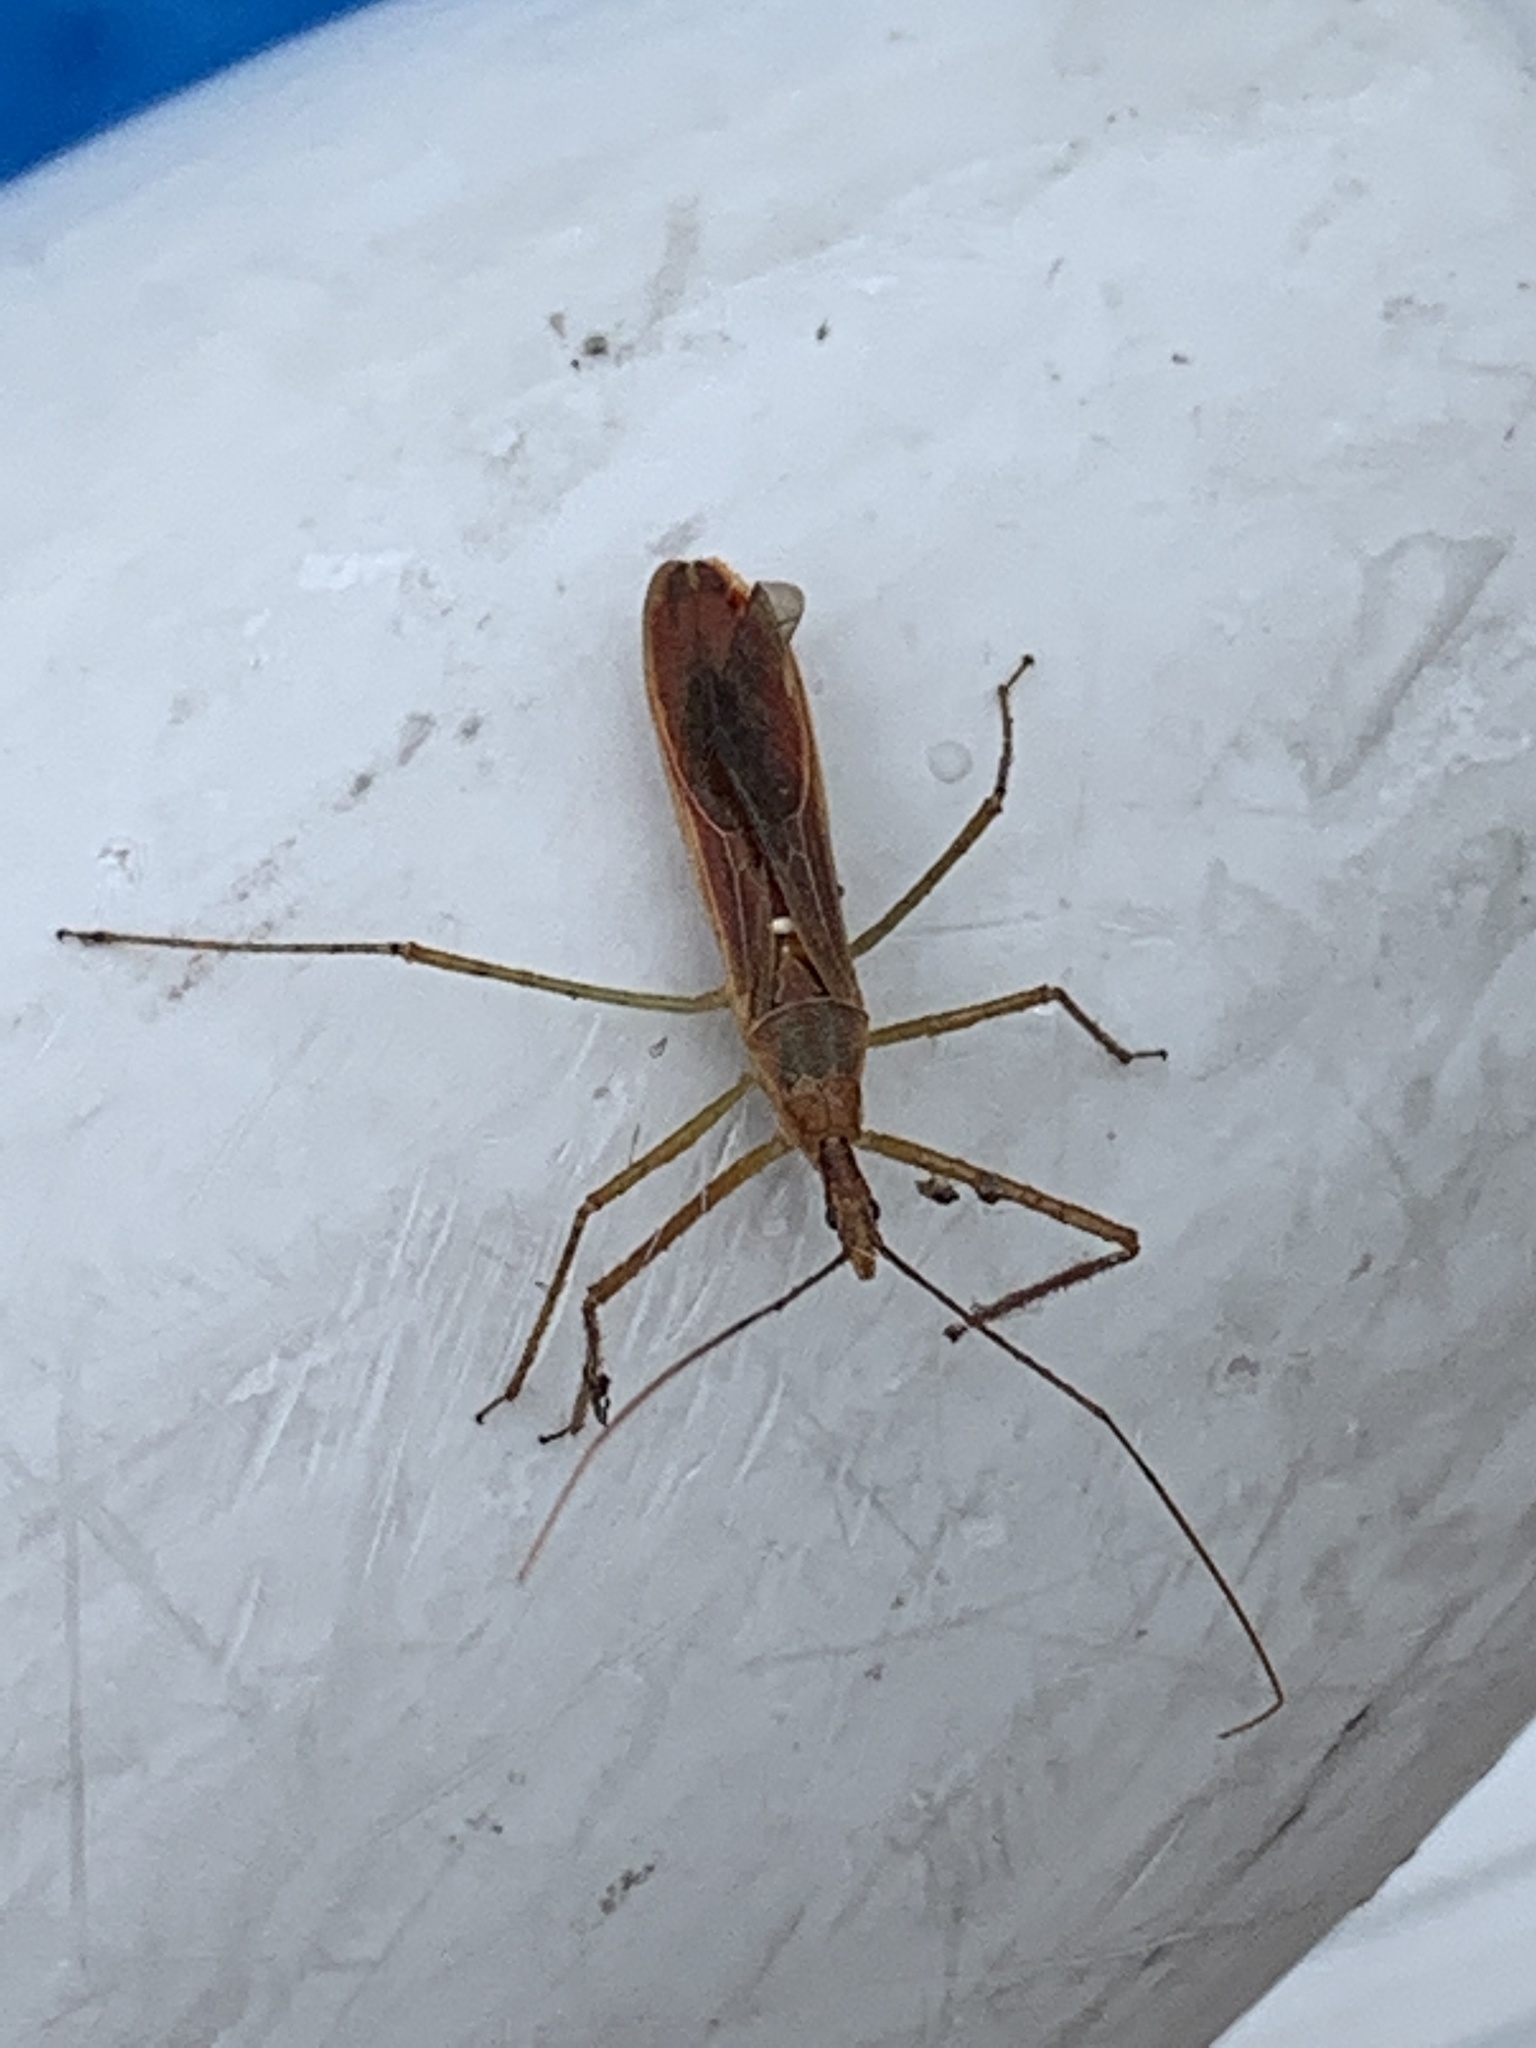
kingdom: Animalia
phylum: Arthropoda
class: Insecta
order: Hemiptera
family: Reduviidae
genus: Zelus
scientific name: Zelus cervicalis
